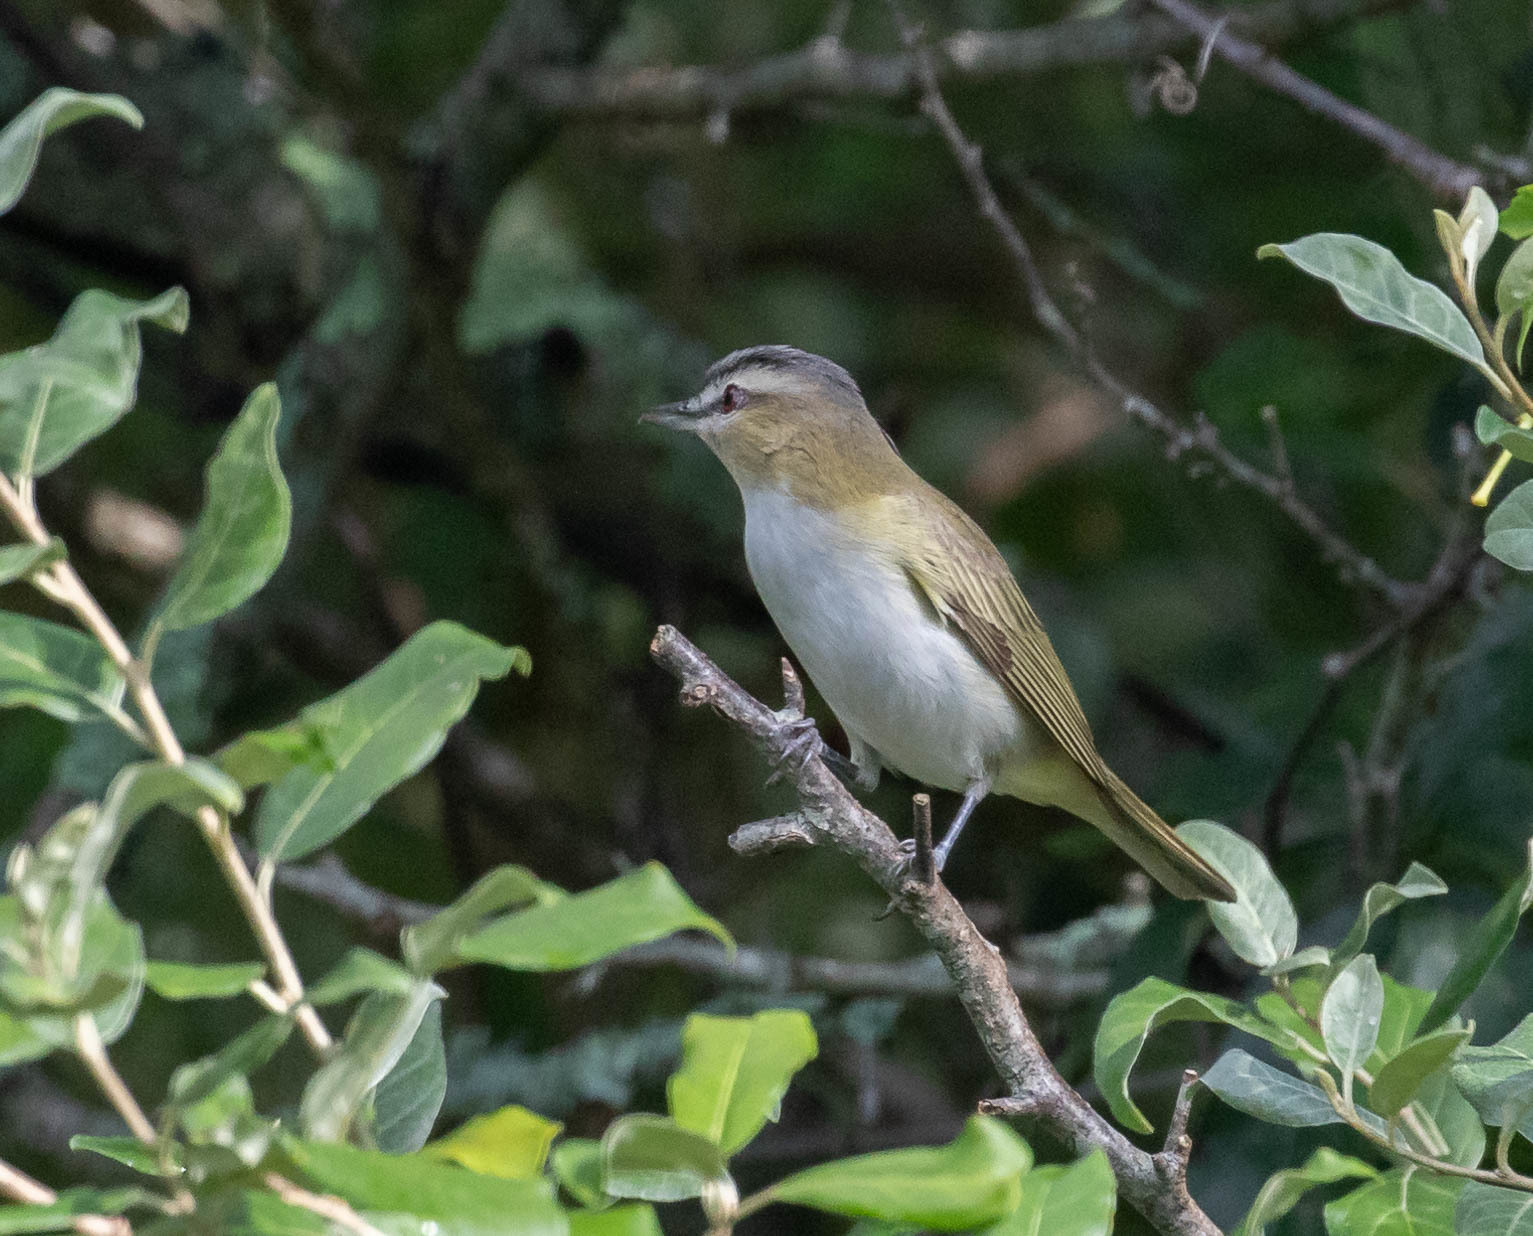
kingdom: Animalia
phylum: Chordata
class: Aves
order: Passeriformes
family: Vireonidae
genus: Vireo
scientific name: Vireo olivaceus
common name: Red-eyed vireo
